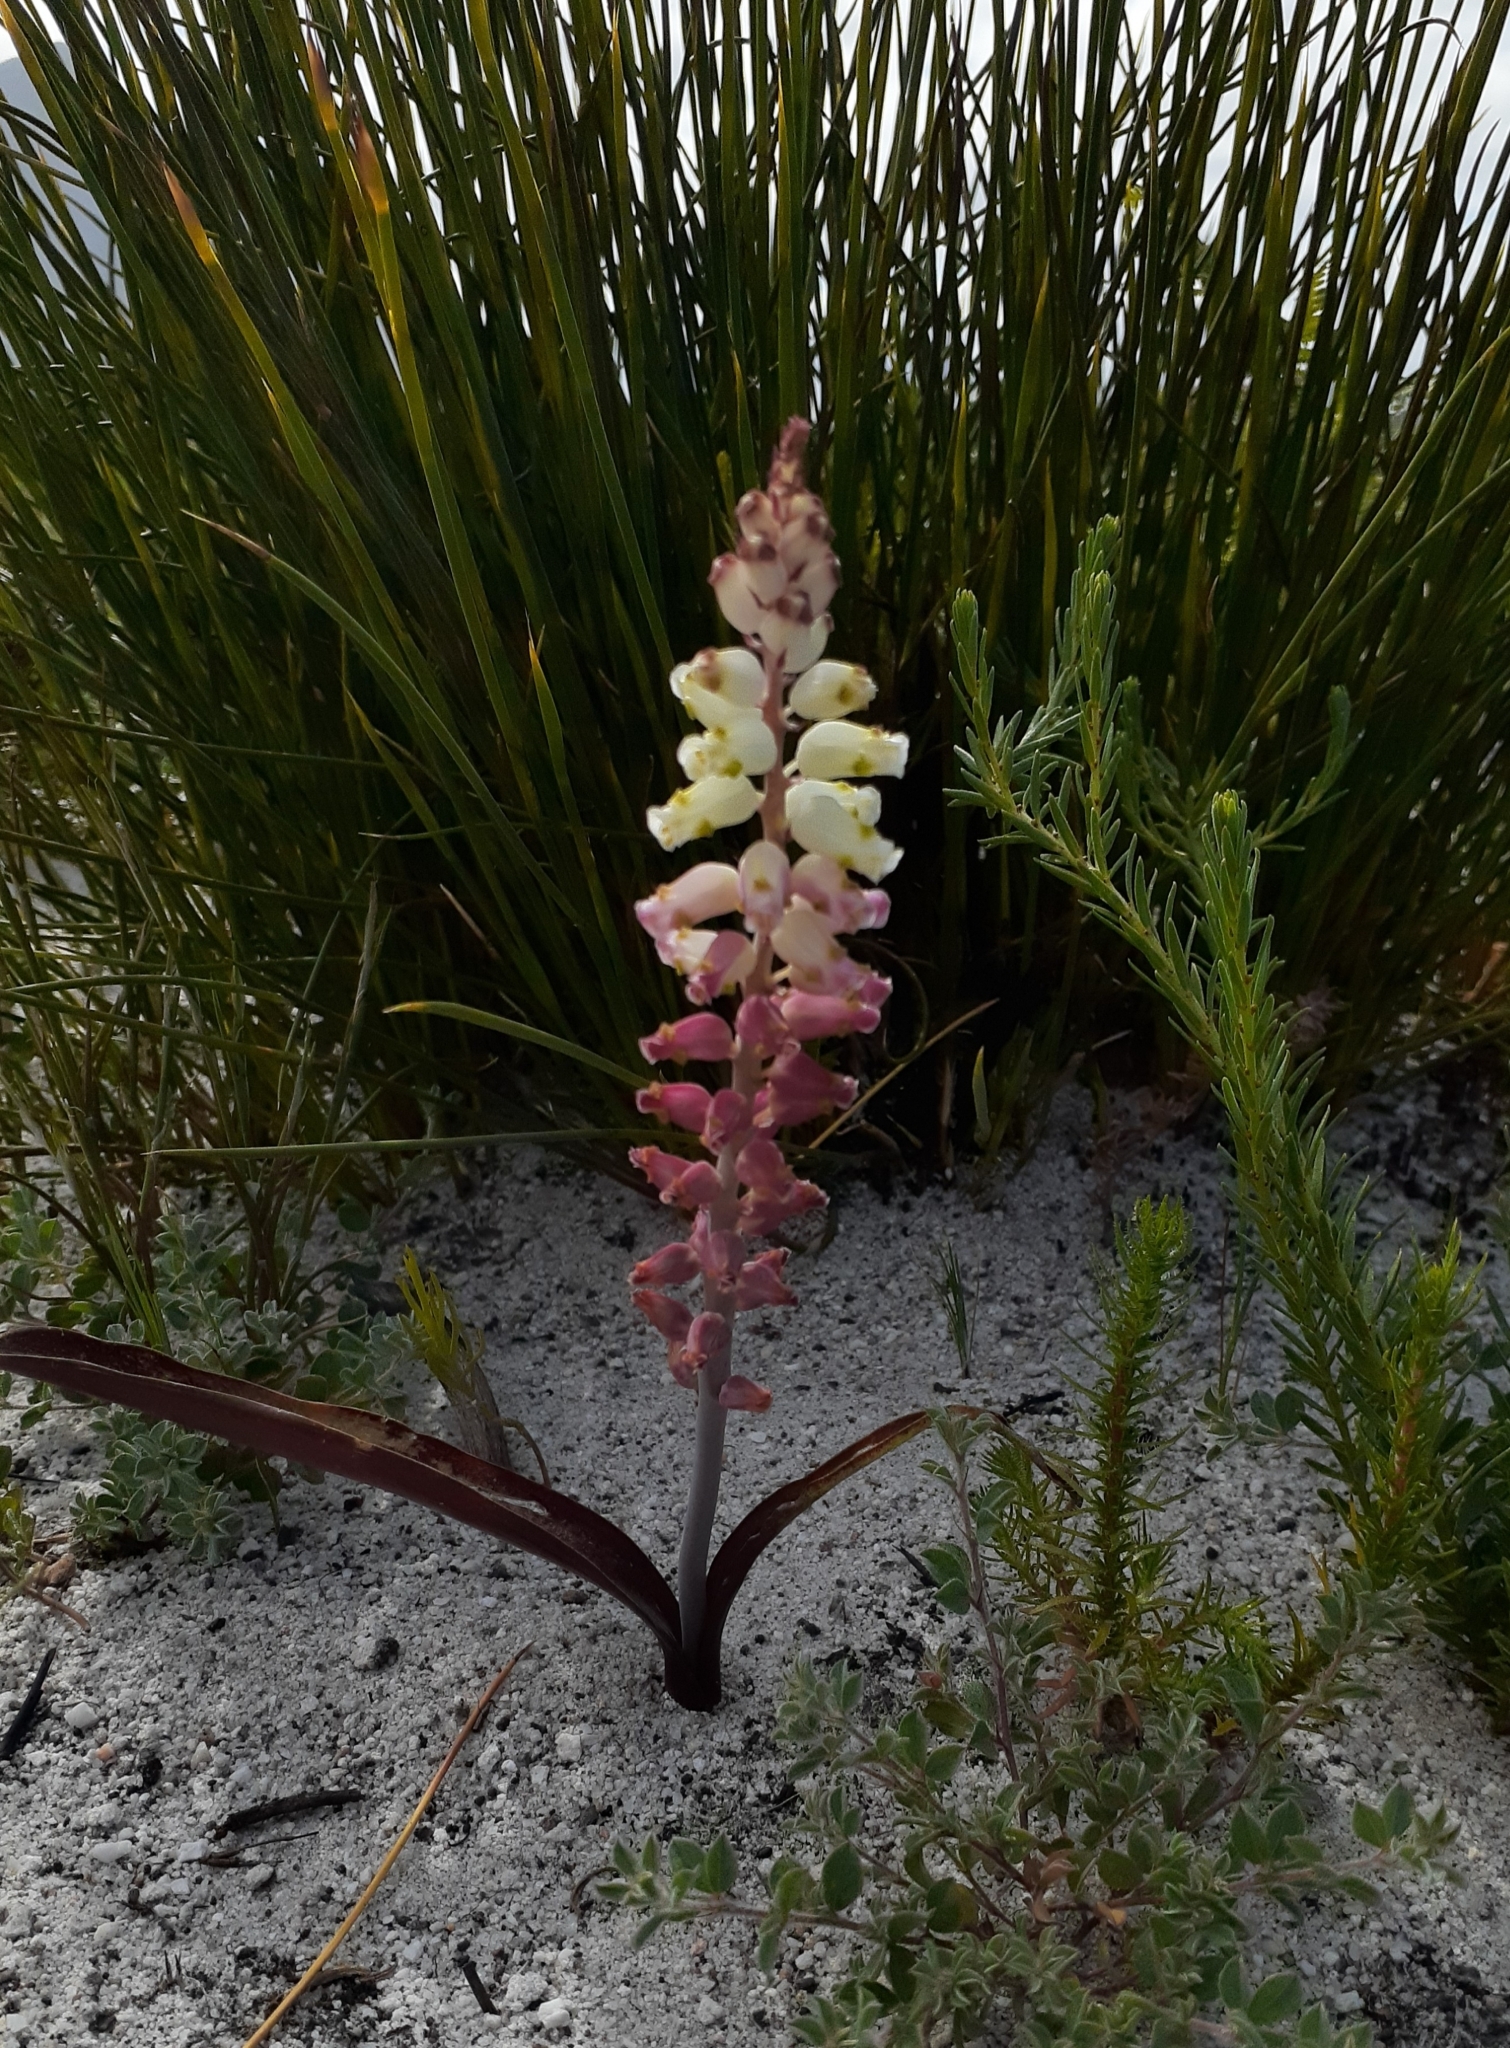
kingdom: Plantae
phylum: Tracheophyta
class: Liliopsida
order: Asparagales
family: Asparagaceae
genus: Lachenalia
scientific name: Lachenalia peersii
